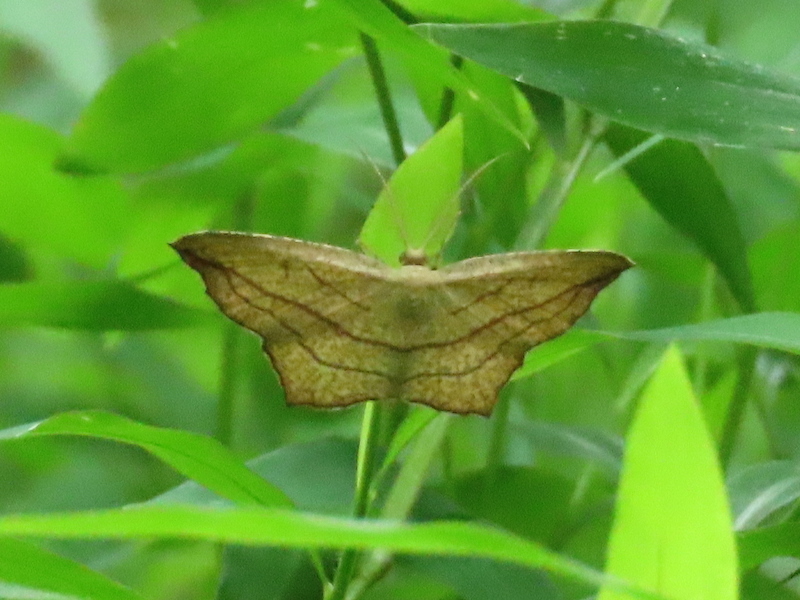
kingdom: Animalia
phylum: Arthropoda
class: Insecta
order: Lepidoptera
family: Geometridae
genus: Timandra
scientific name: Timandra amaturaria
